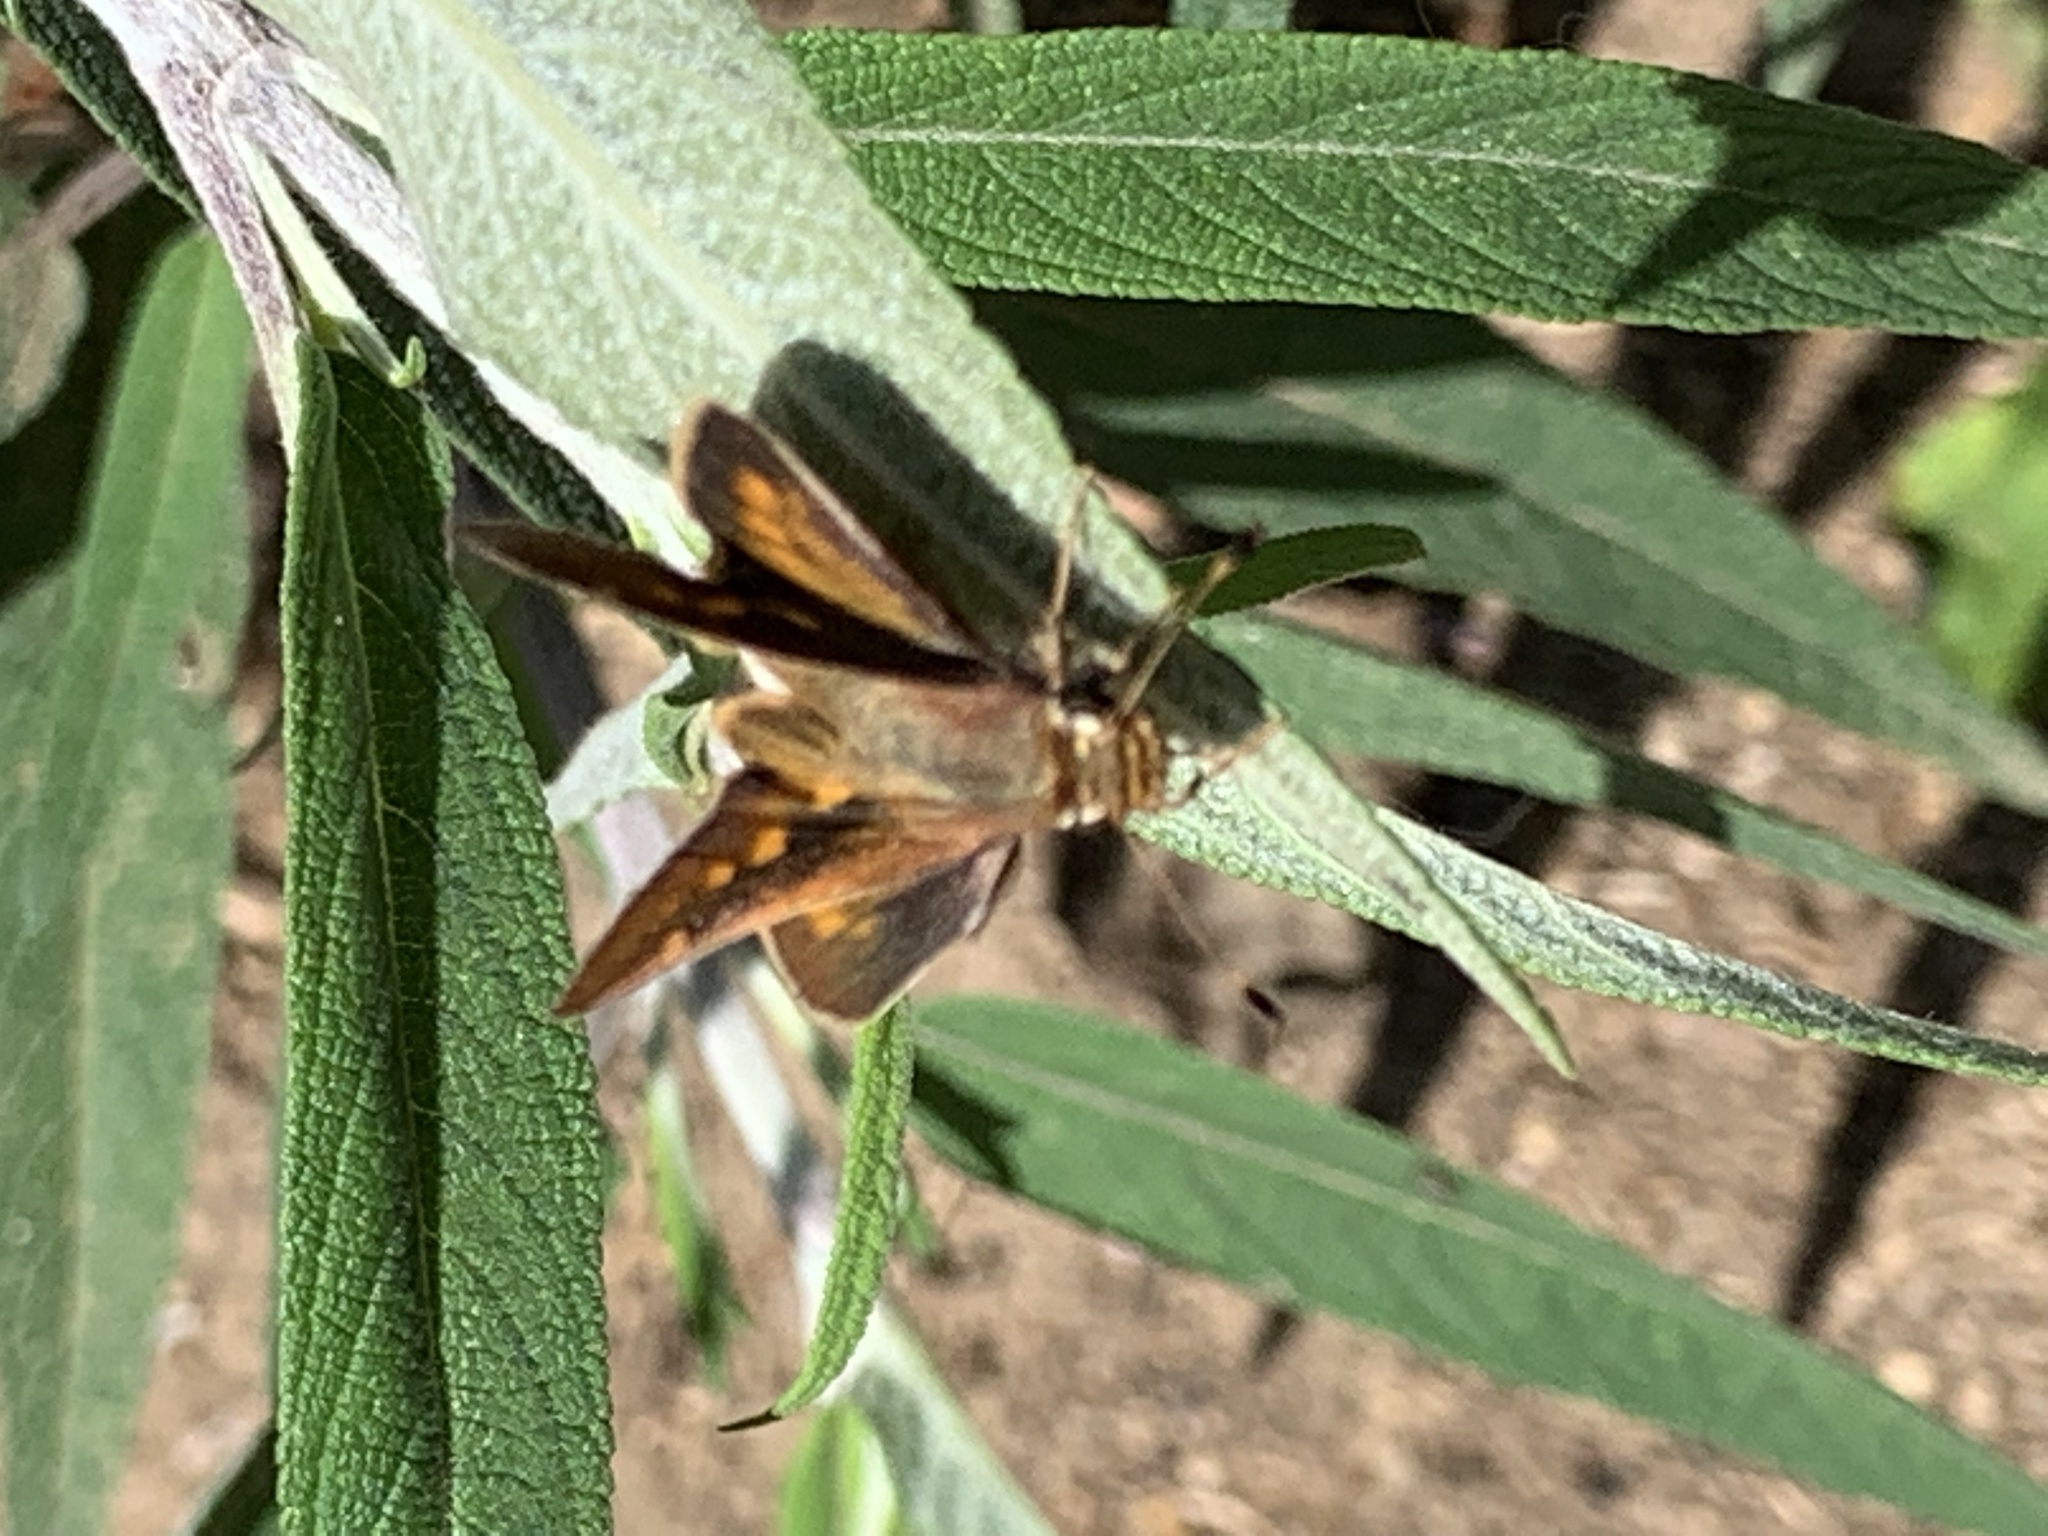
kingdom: Animalia
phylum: Arthropoda
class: Insecta
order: Lepidoptera
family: Hesperiidae
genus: Lon
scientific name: Lon melane
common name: Umber skipper
